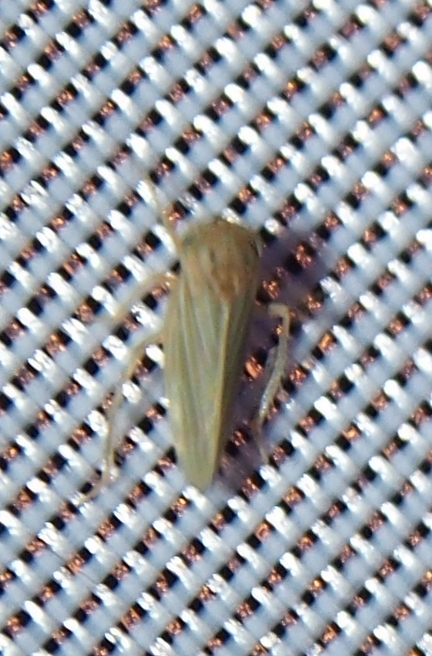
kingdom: Animalia
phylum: Arthropoda
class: Insecta
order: Hemiptera
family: Cicadellidae
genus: Agallia
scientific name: Agallia constricta
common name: The constricted leafhopper
